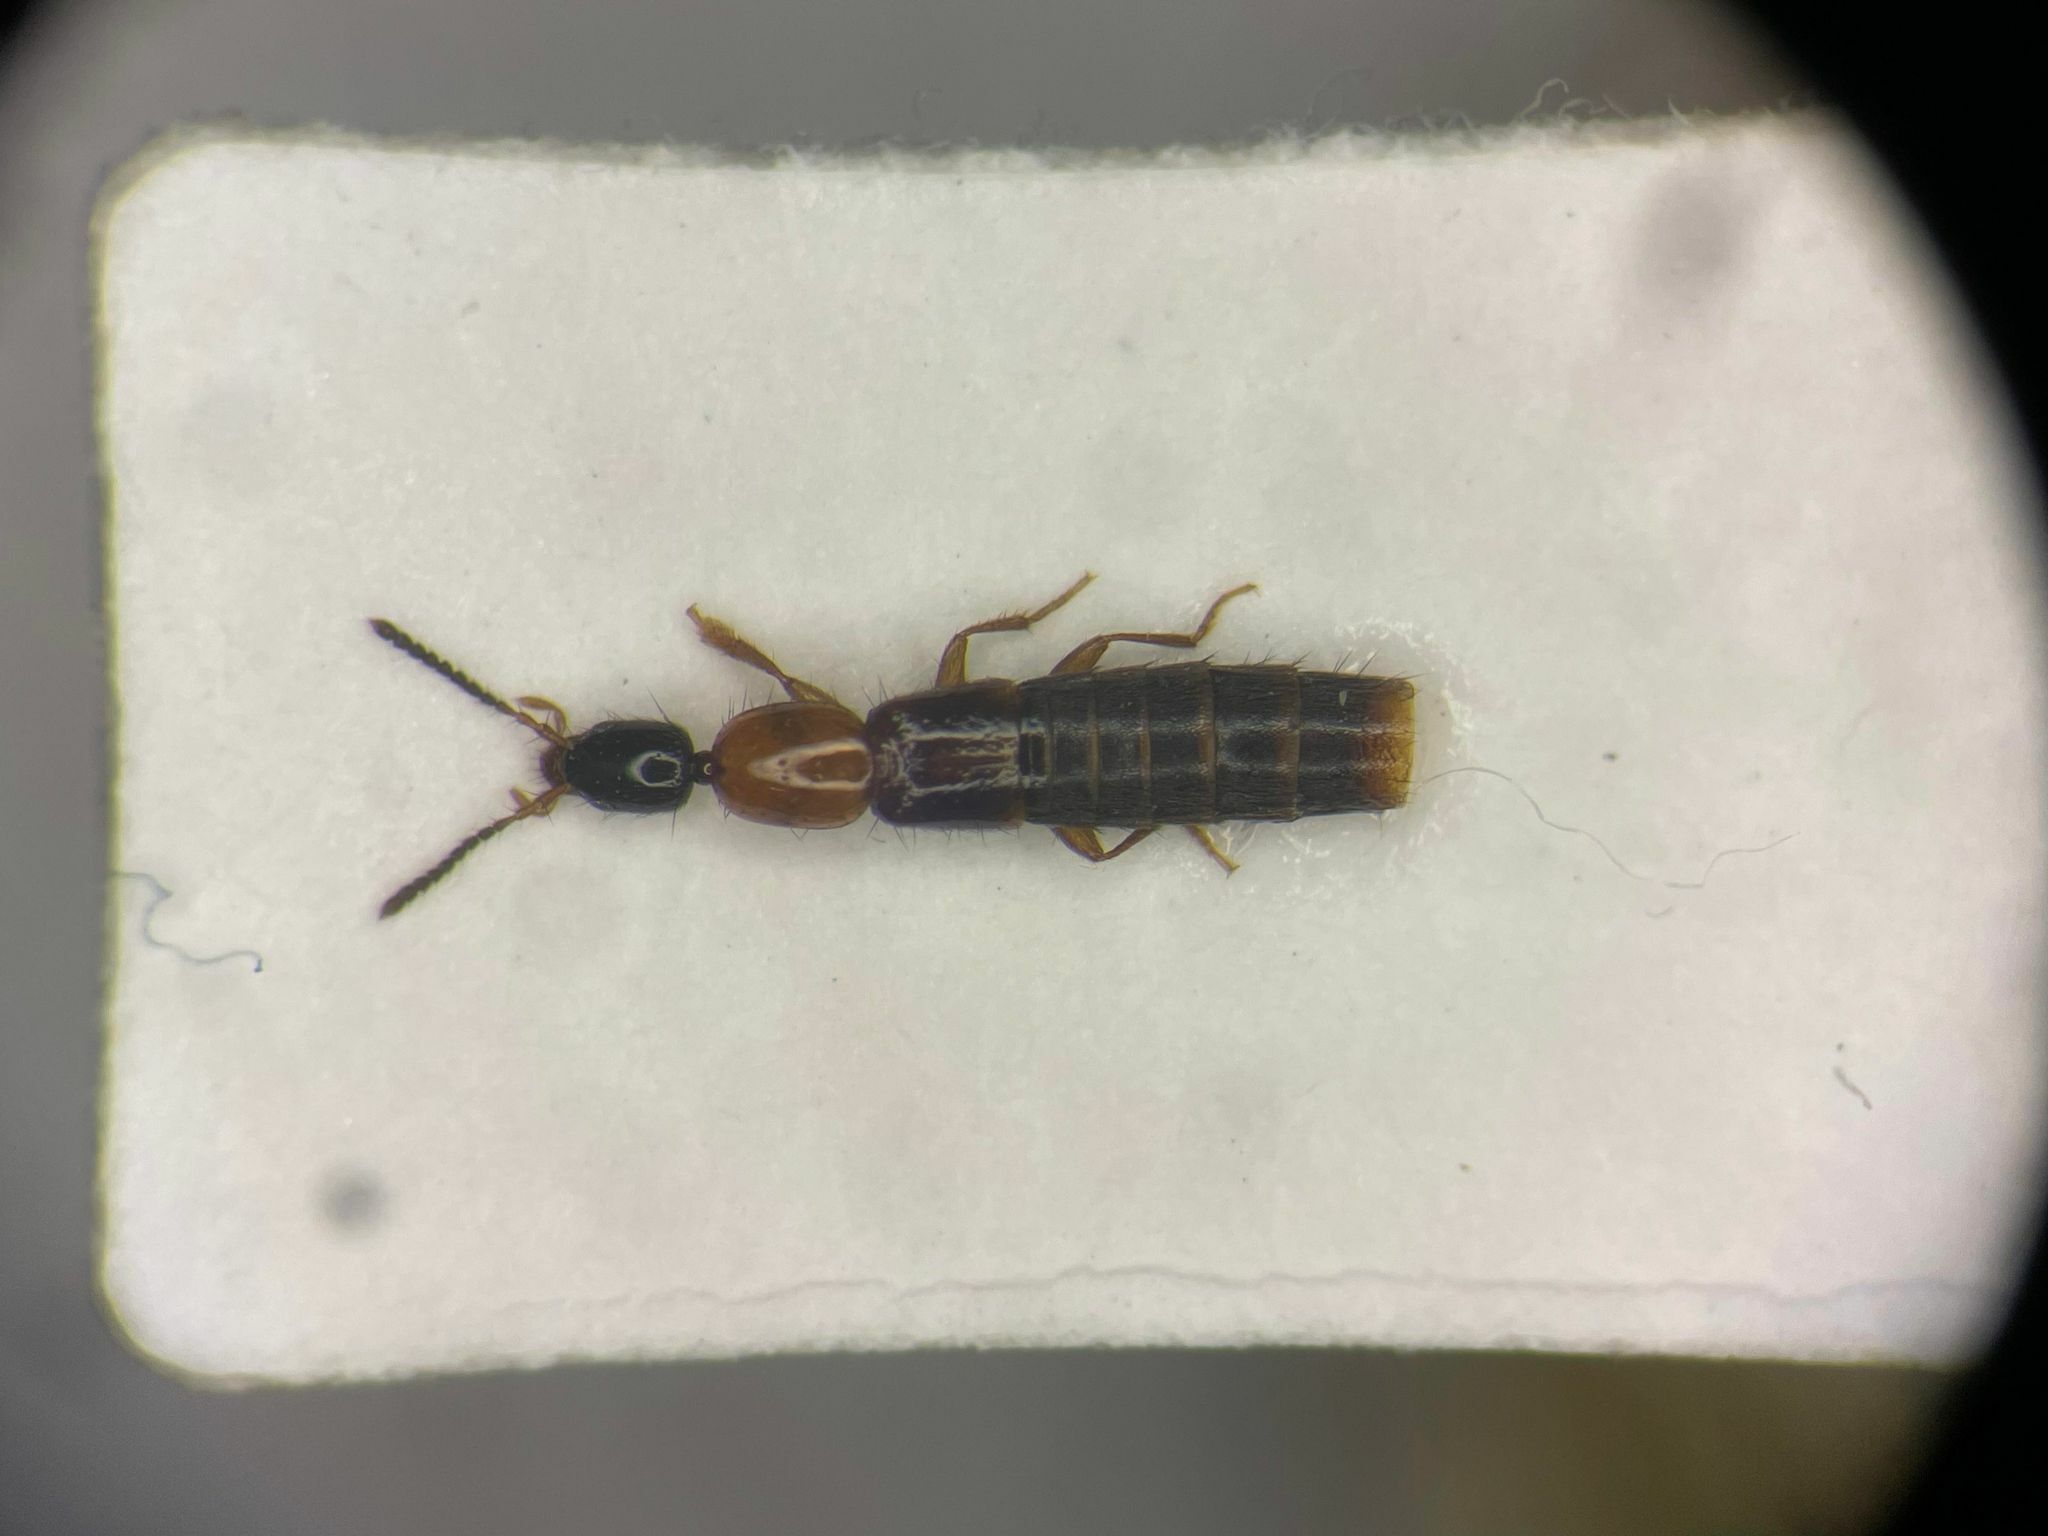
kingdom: Animalia
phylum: Arthropoda
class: Insecta
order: Coleoptera
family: Staphylinidae
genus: Diochus
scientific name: Diochus schaumii
